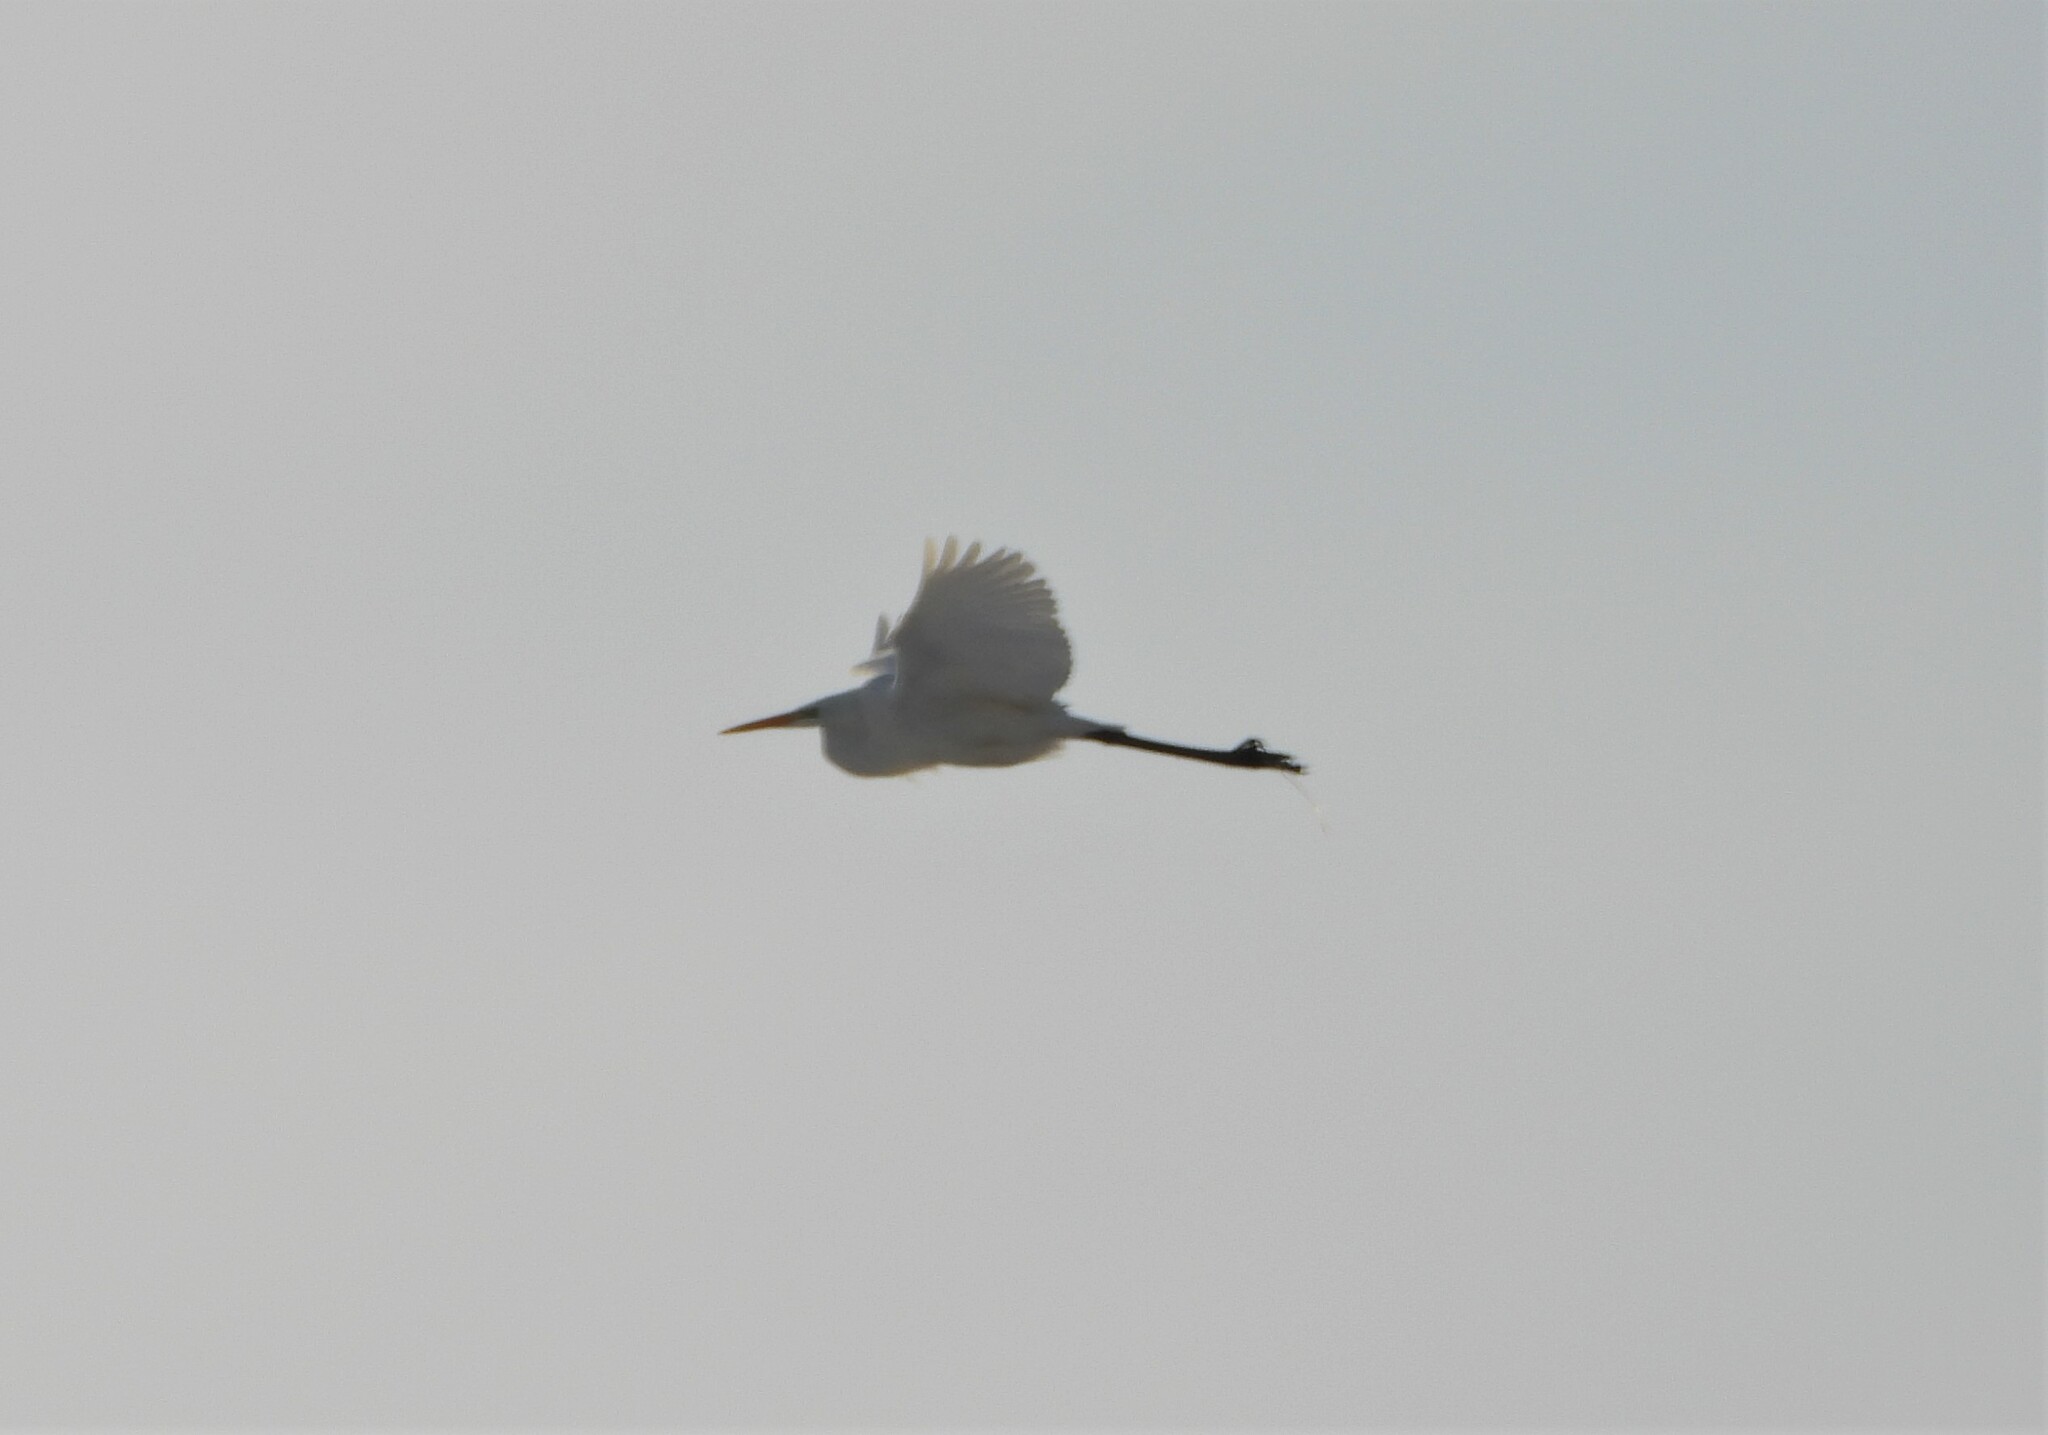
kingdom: Animalia
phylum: Chordata
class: Aves
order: Pelecaniformes
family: Ardeidae
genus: Ardea
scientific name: Ardea alba
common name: Great egret
